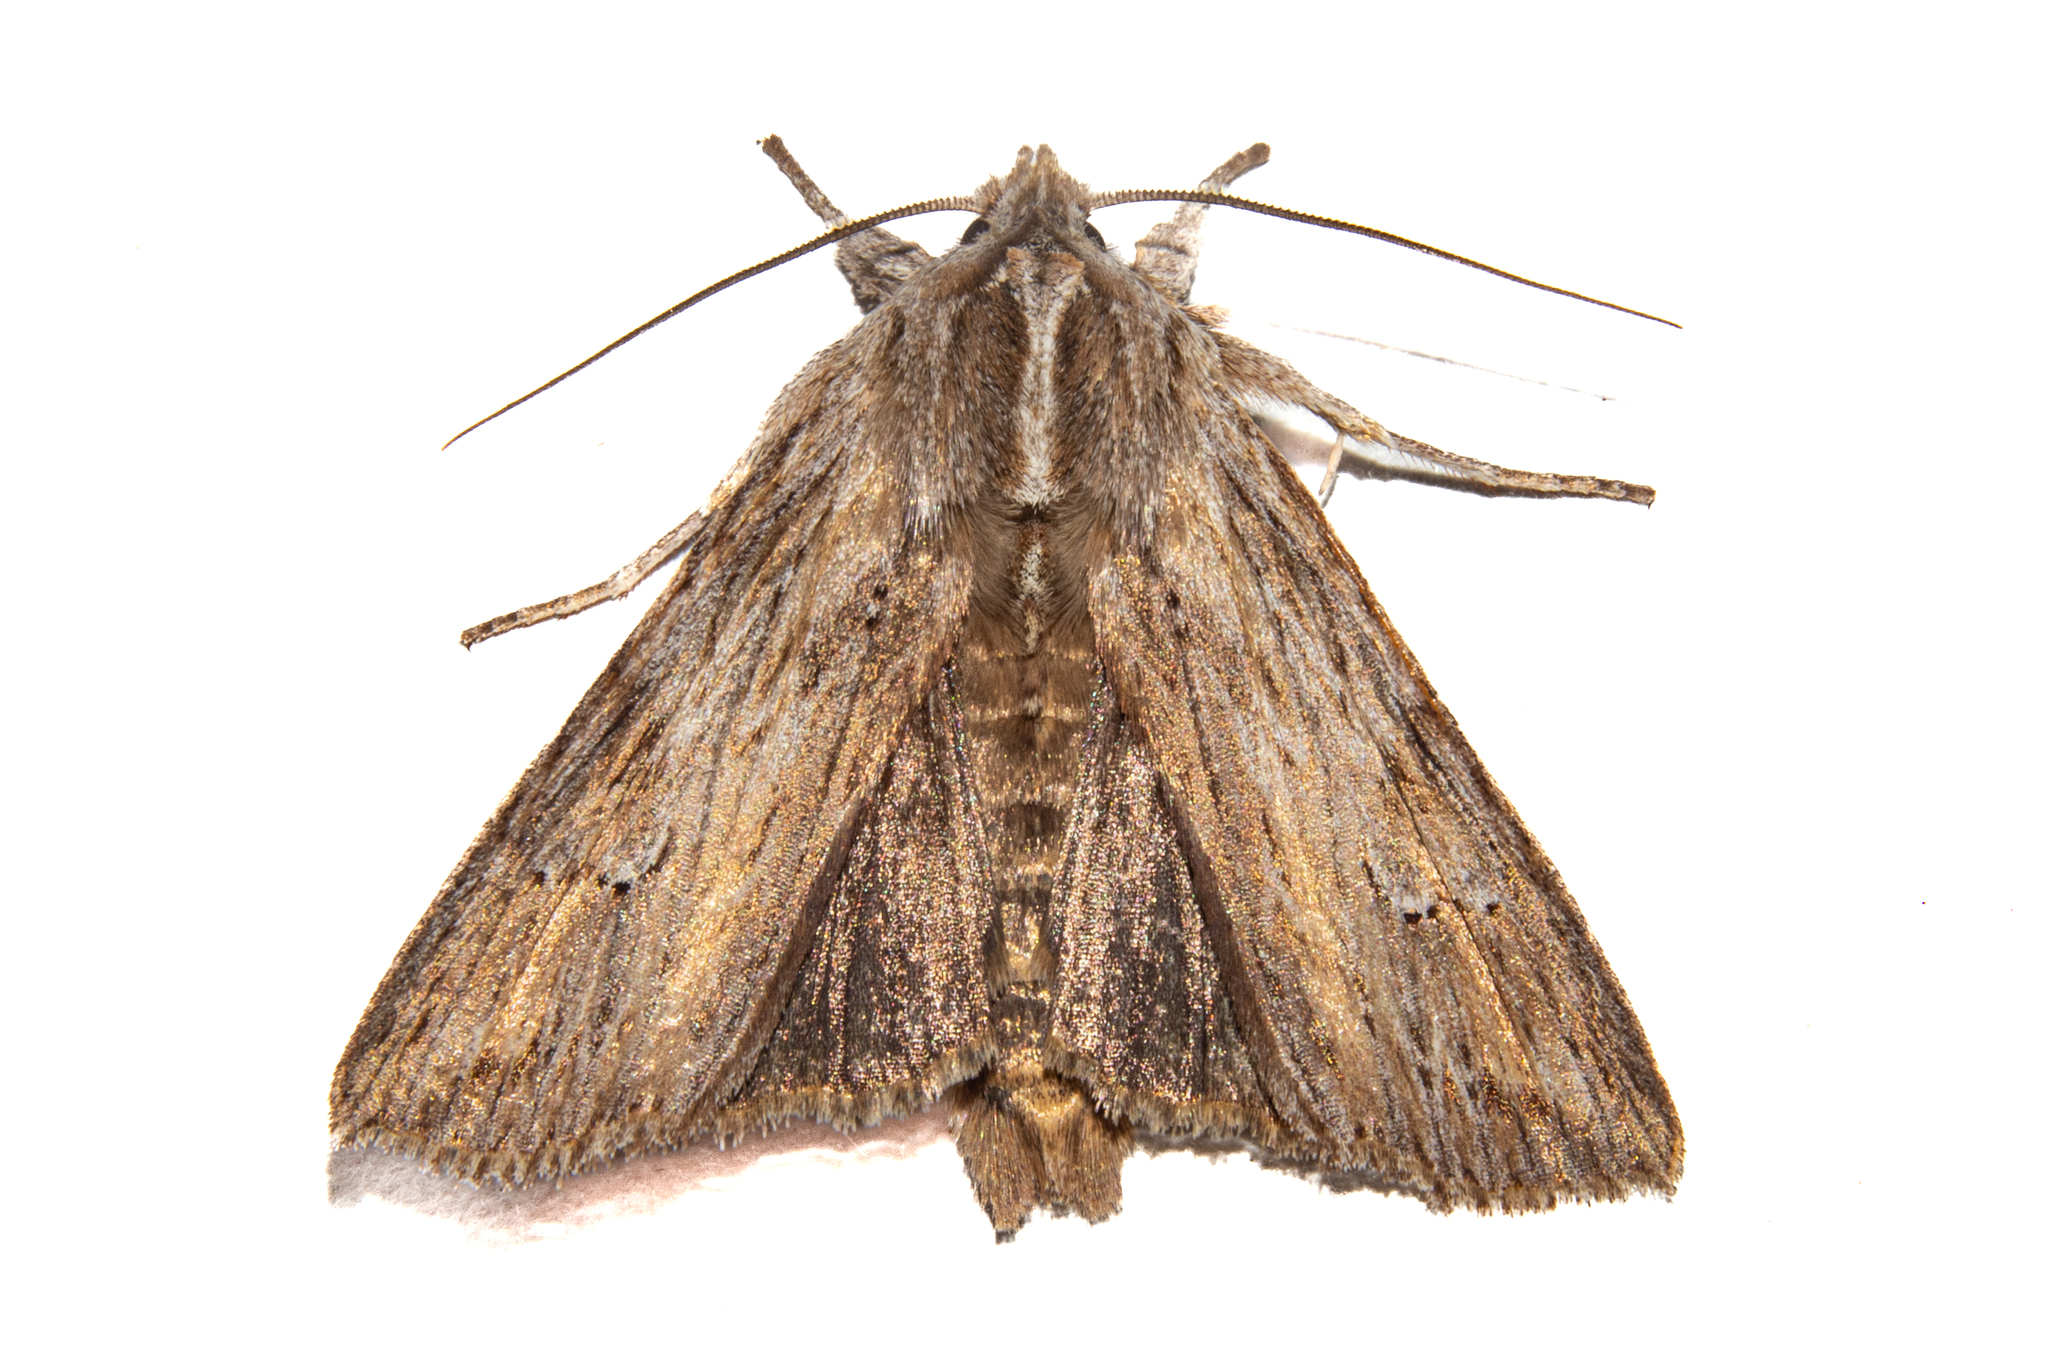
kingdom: Animalia
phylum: Arthropoda
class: Insecta
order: Lepidoptera
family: Noctuidae
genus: Physetica
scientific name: Physetica prionistis
